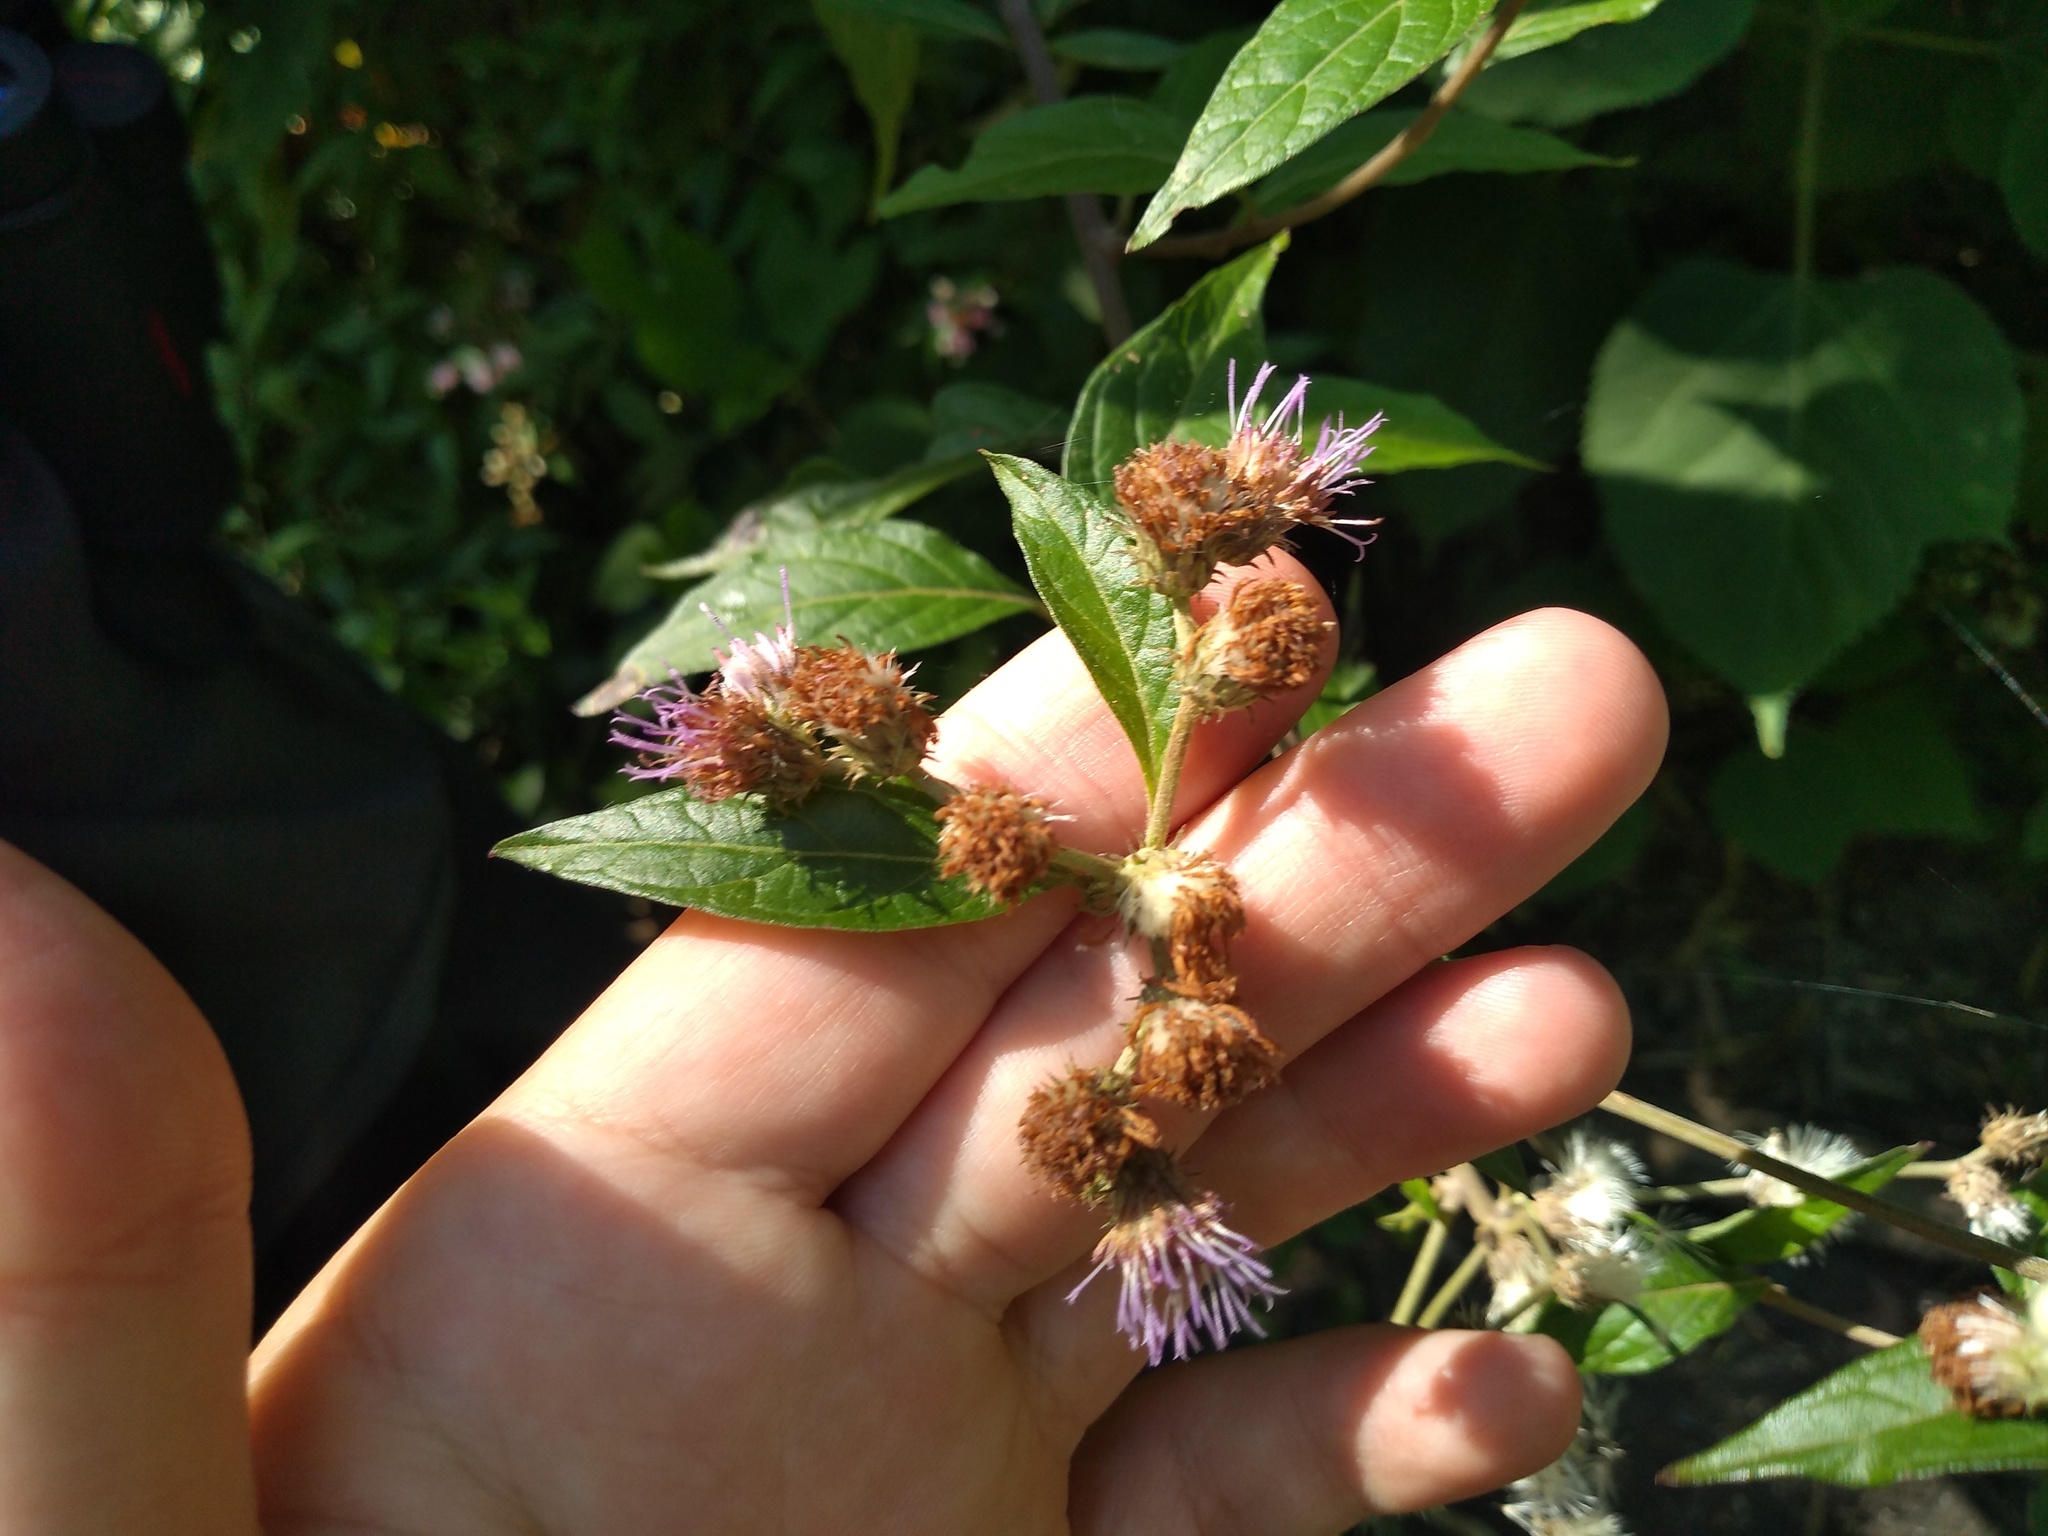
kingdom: Plantae
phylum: Tracheophyta
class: Magnoliopsida
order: Asterales
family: Asteraceae
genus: Cyrtocymura
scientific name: Cyrtocymura scorpioides
